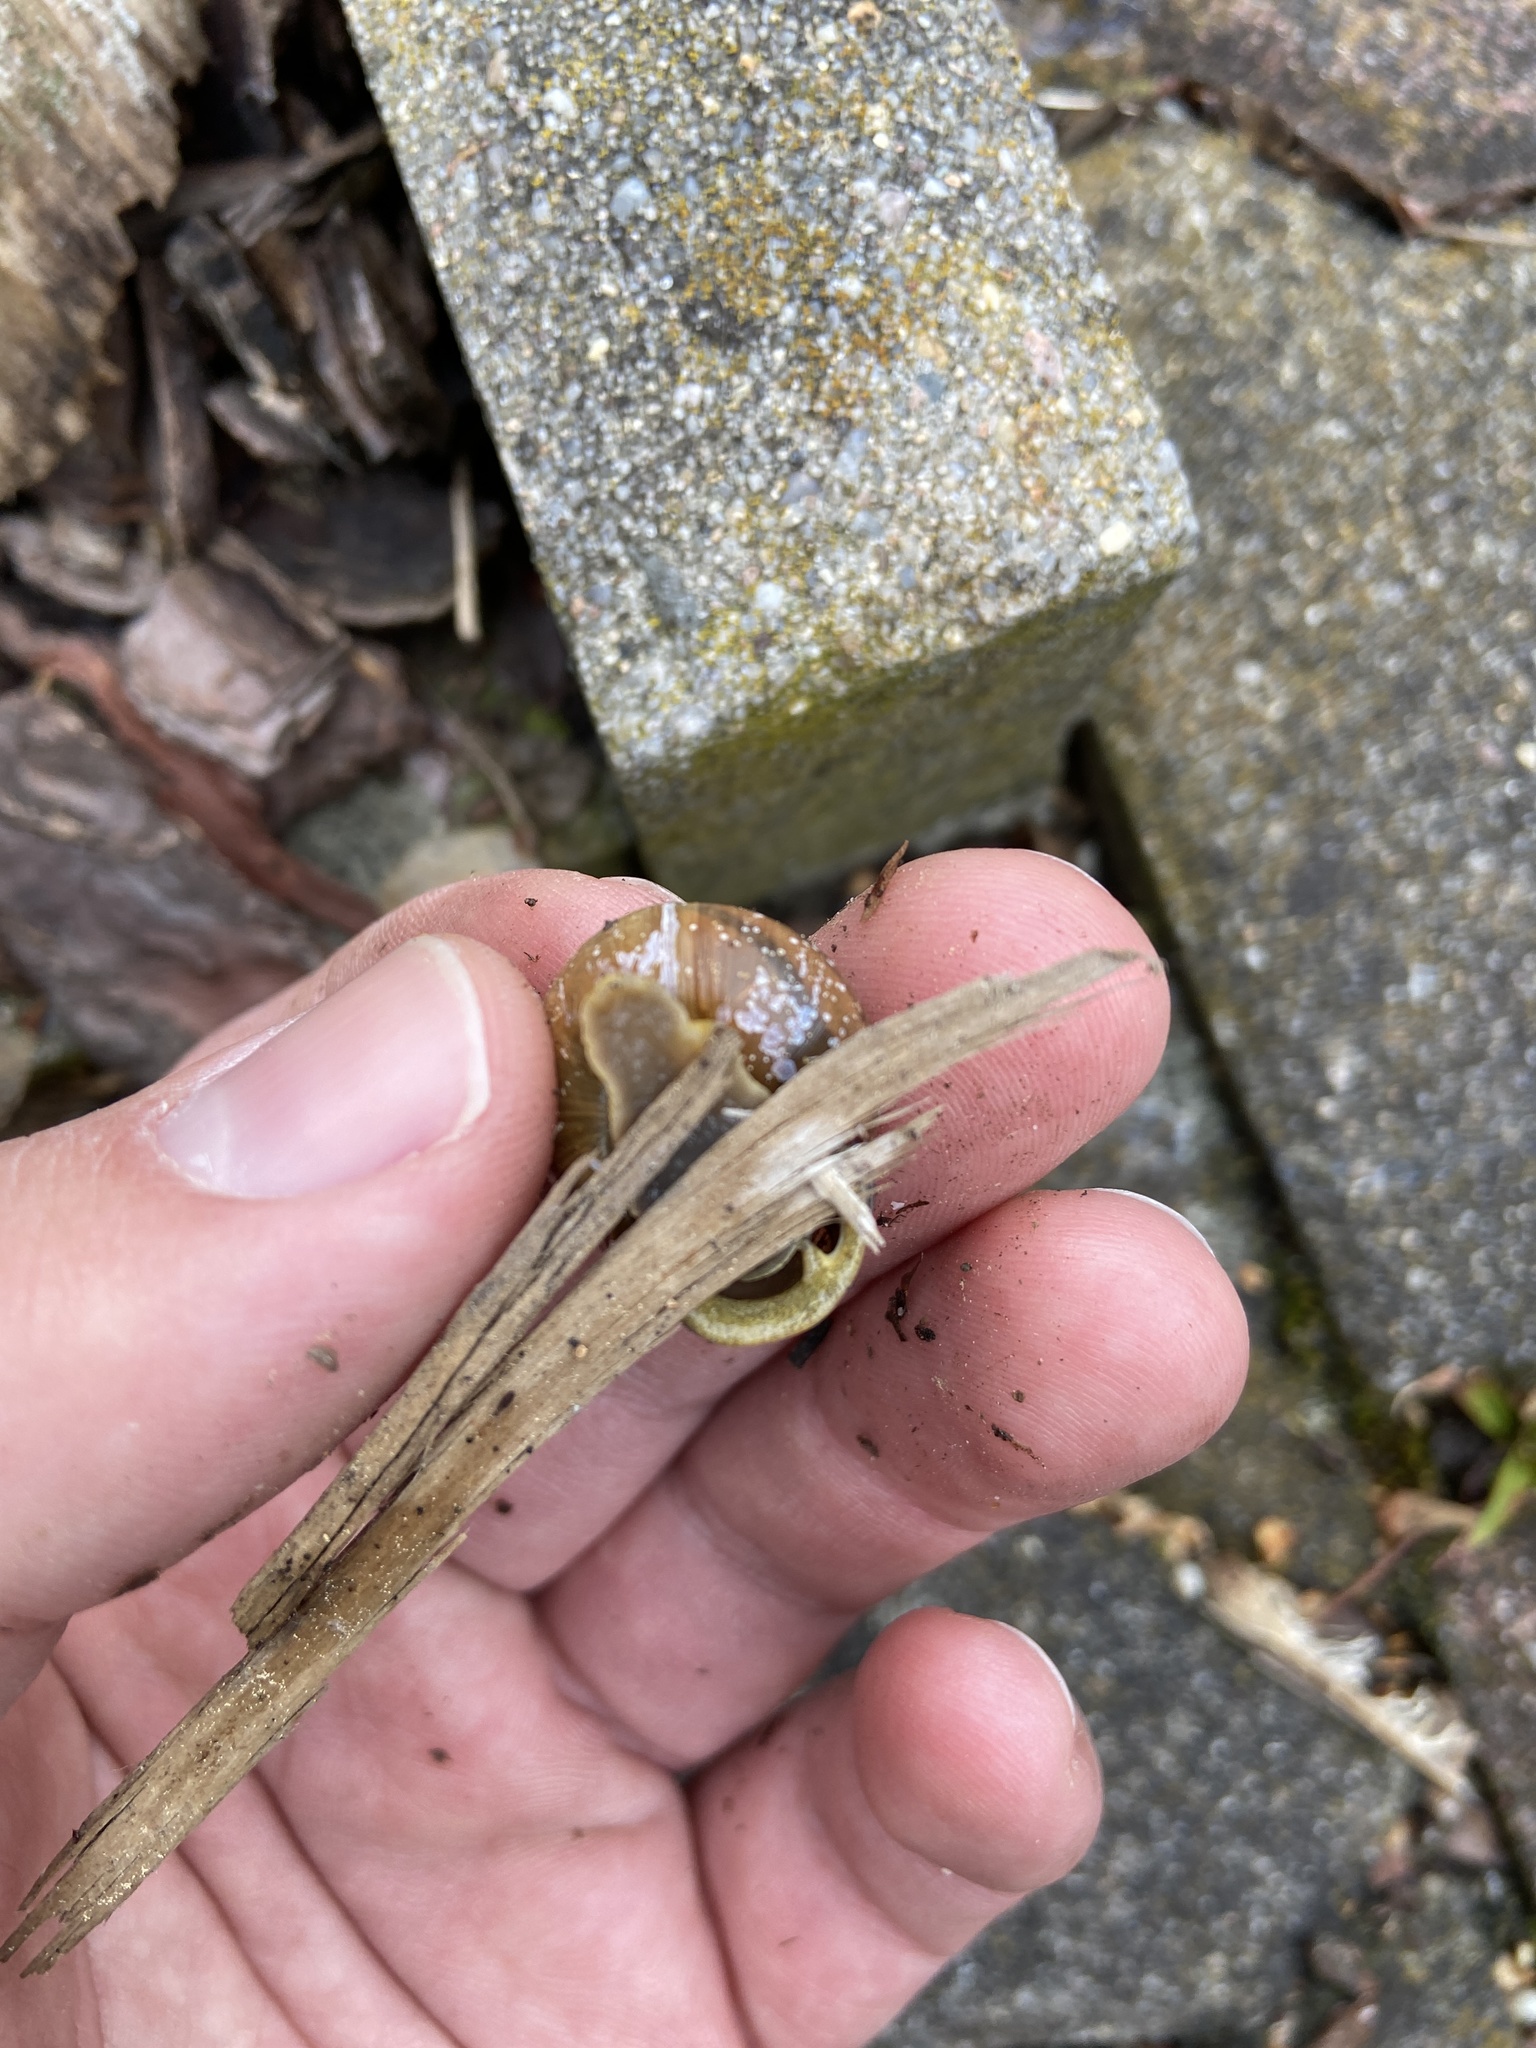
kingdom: Animalia
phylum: Mollusca
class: Gastropoda
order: Stylommatophora
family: Helicidae
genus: Cepaea
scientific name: Cepaea nemoralis
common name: Grovesnail
